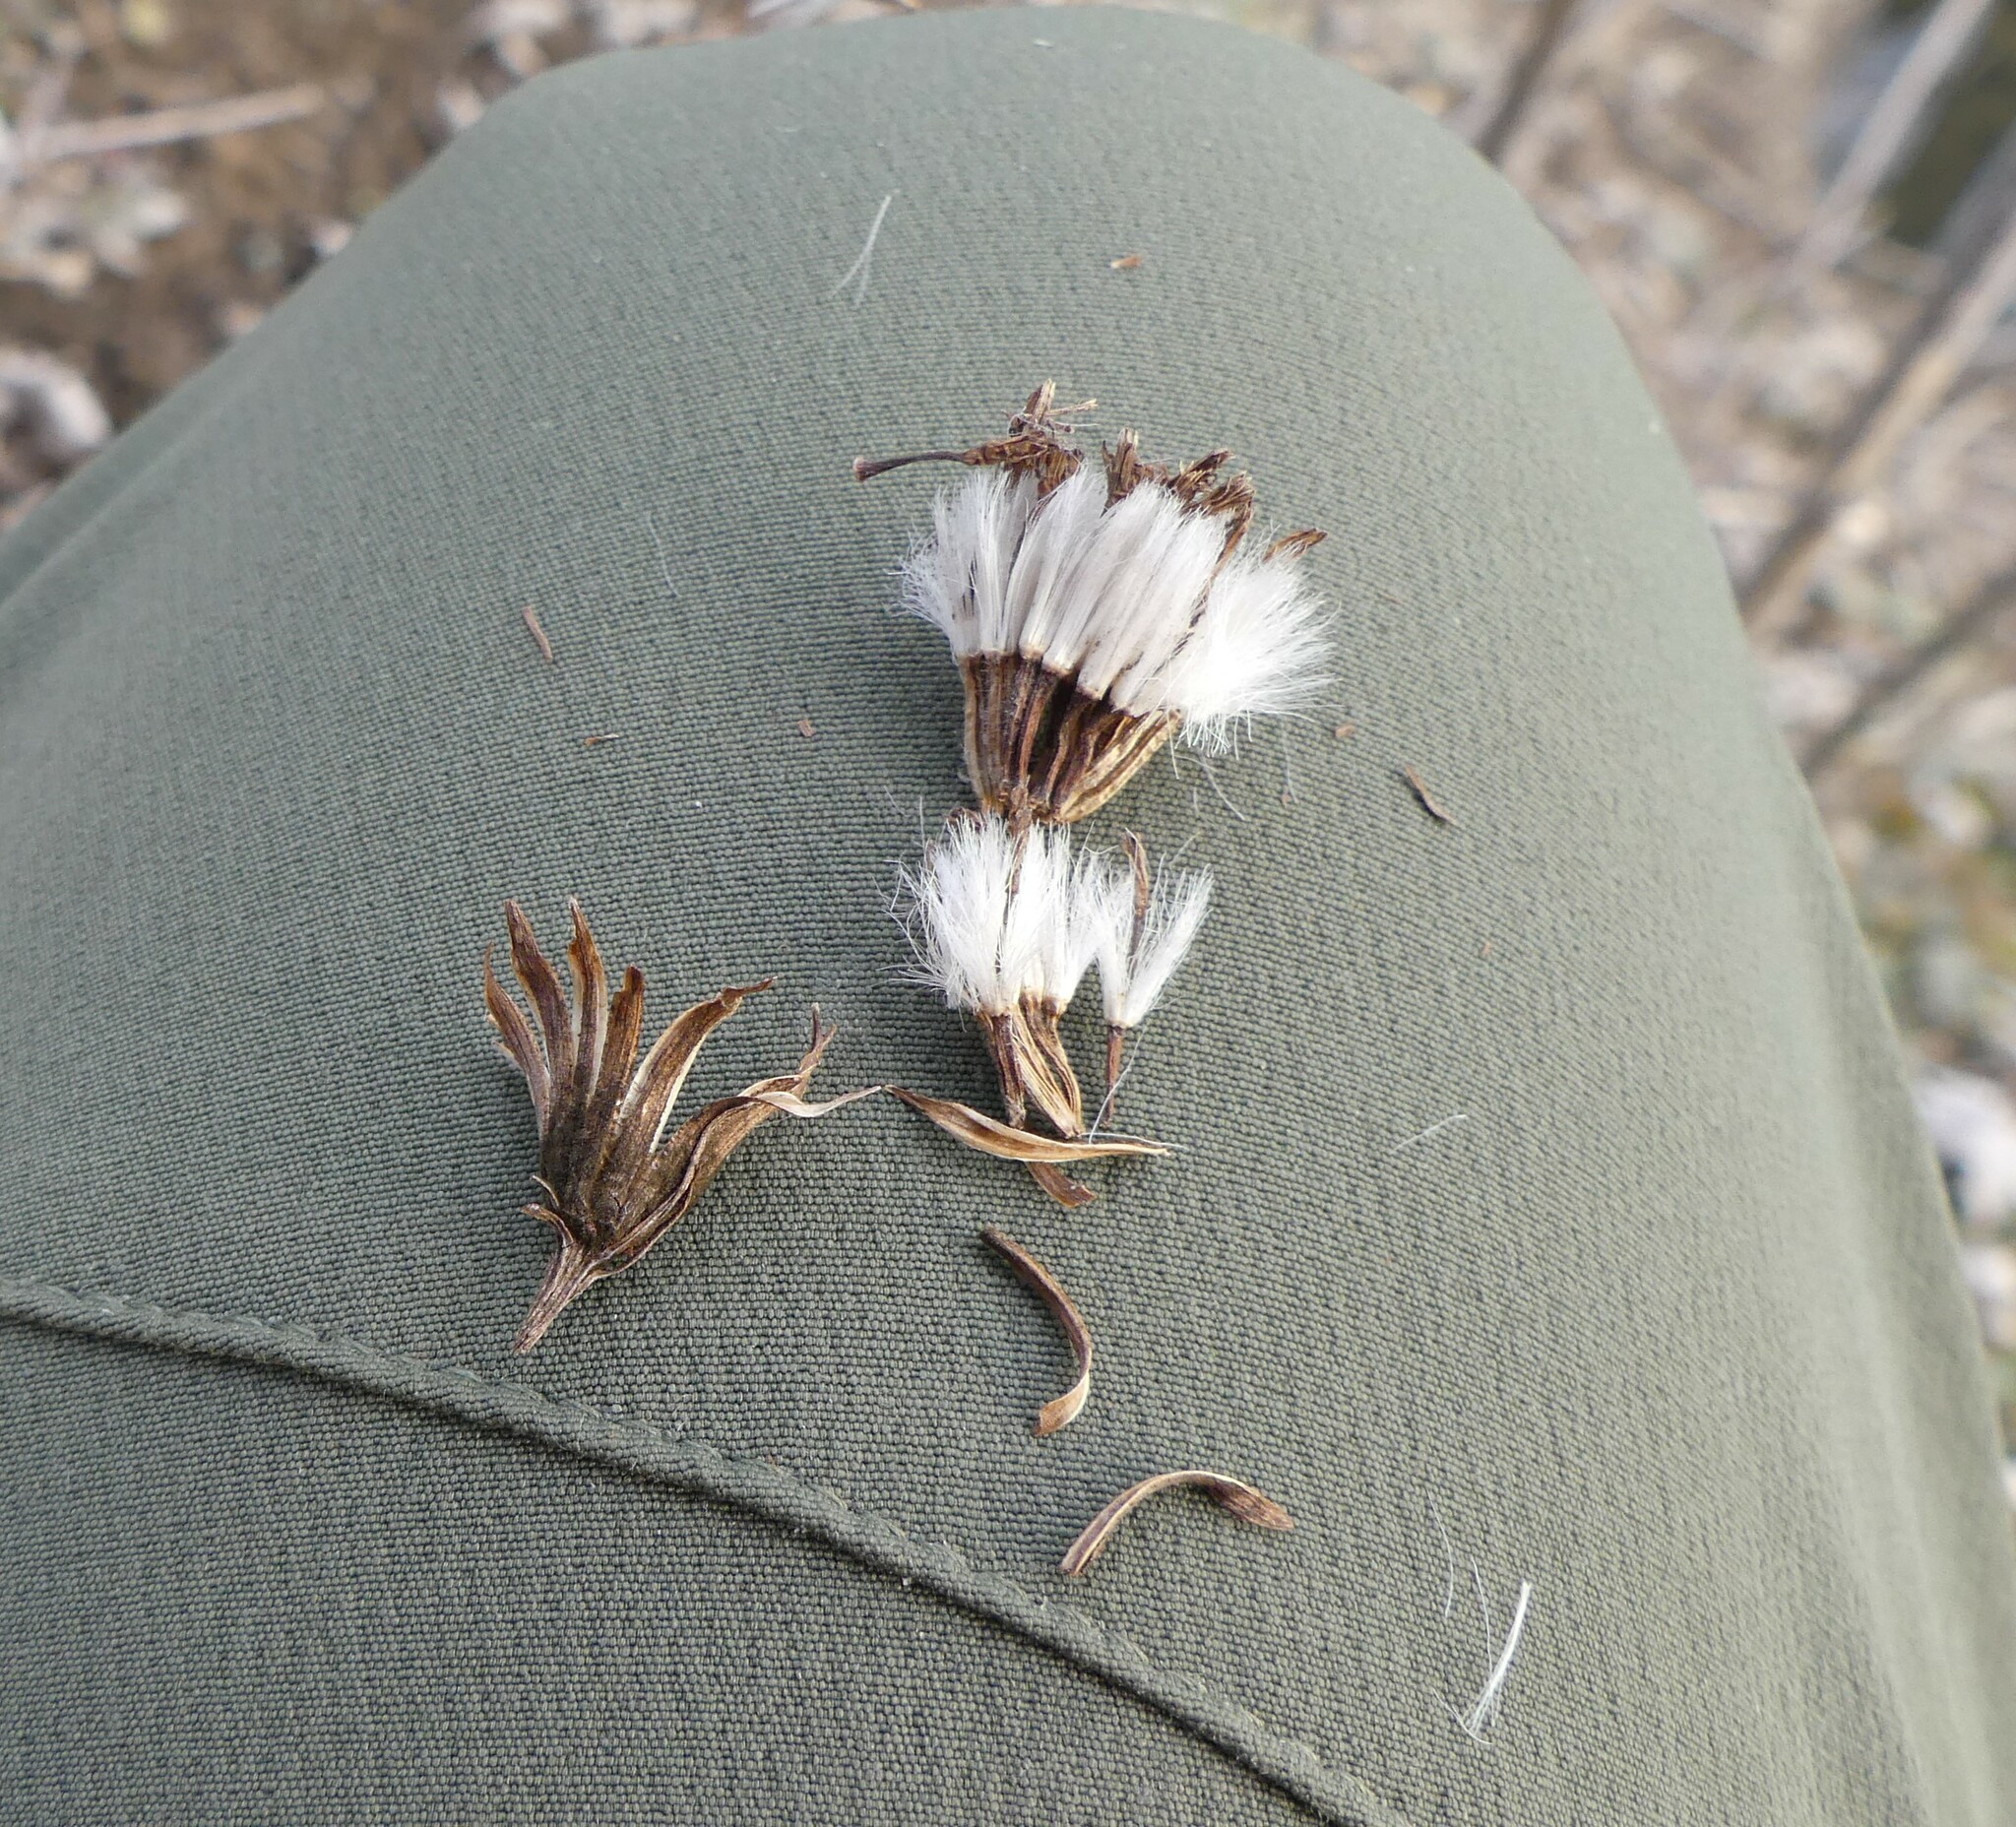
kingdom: Plantae
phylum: Tracheophyta
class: Magnoliopsida
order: Asterales
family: Asteraceae
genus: Hasteola
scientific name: Hasteola suaveolens
